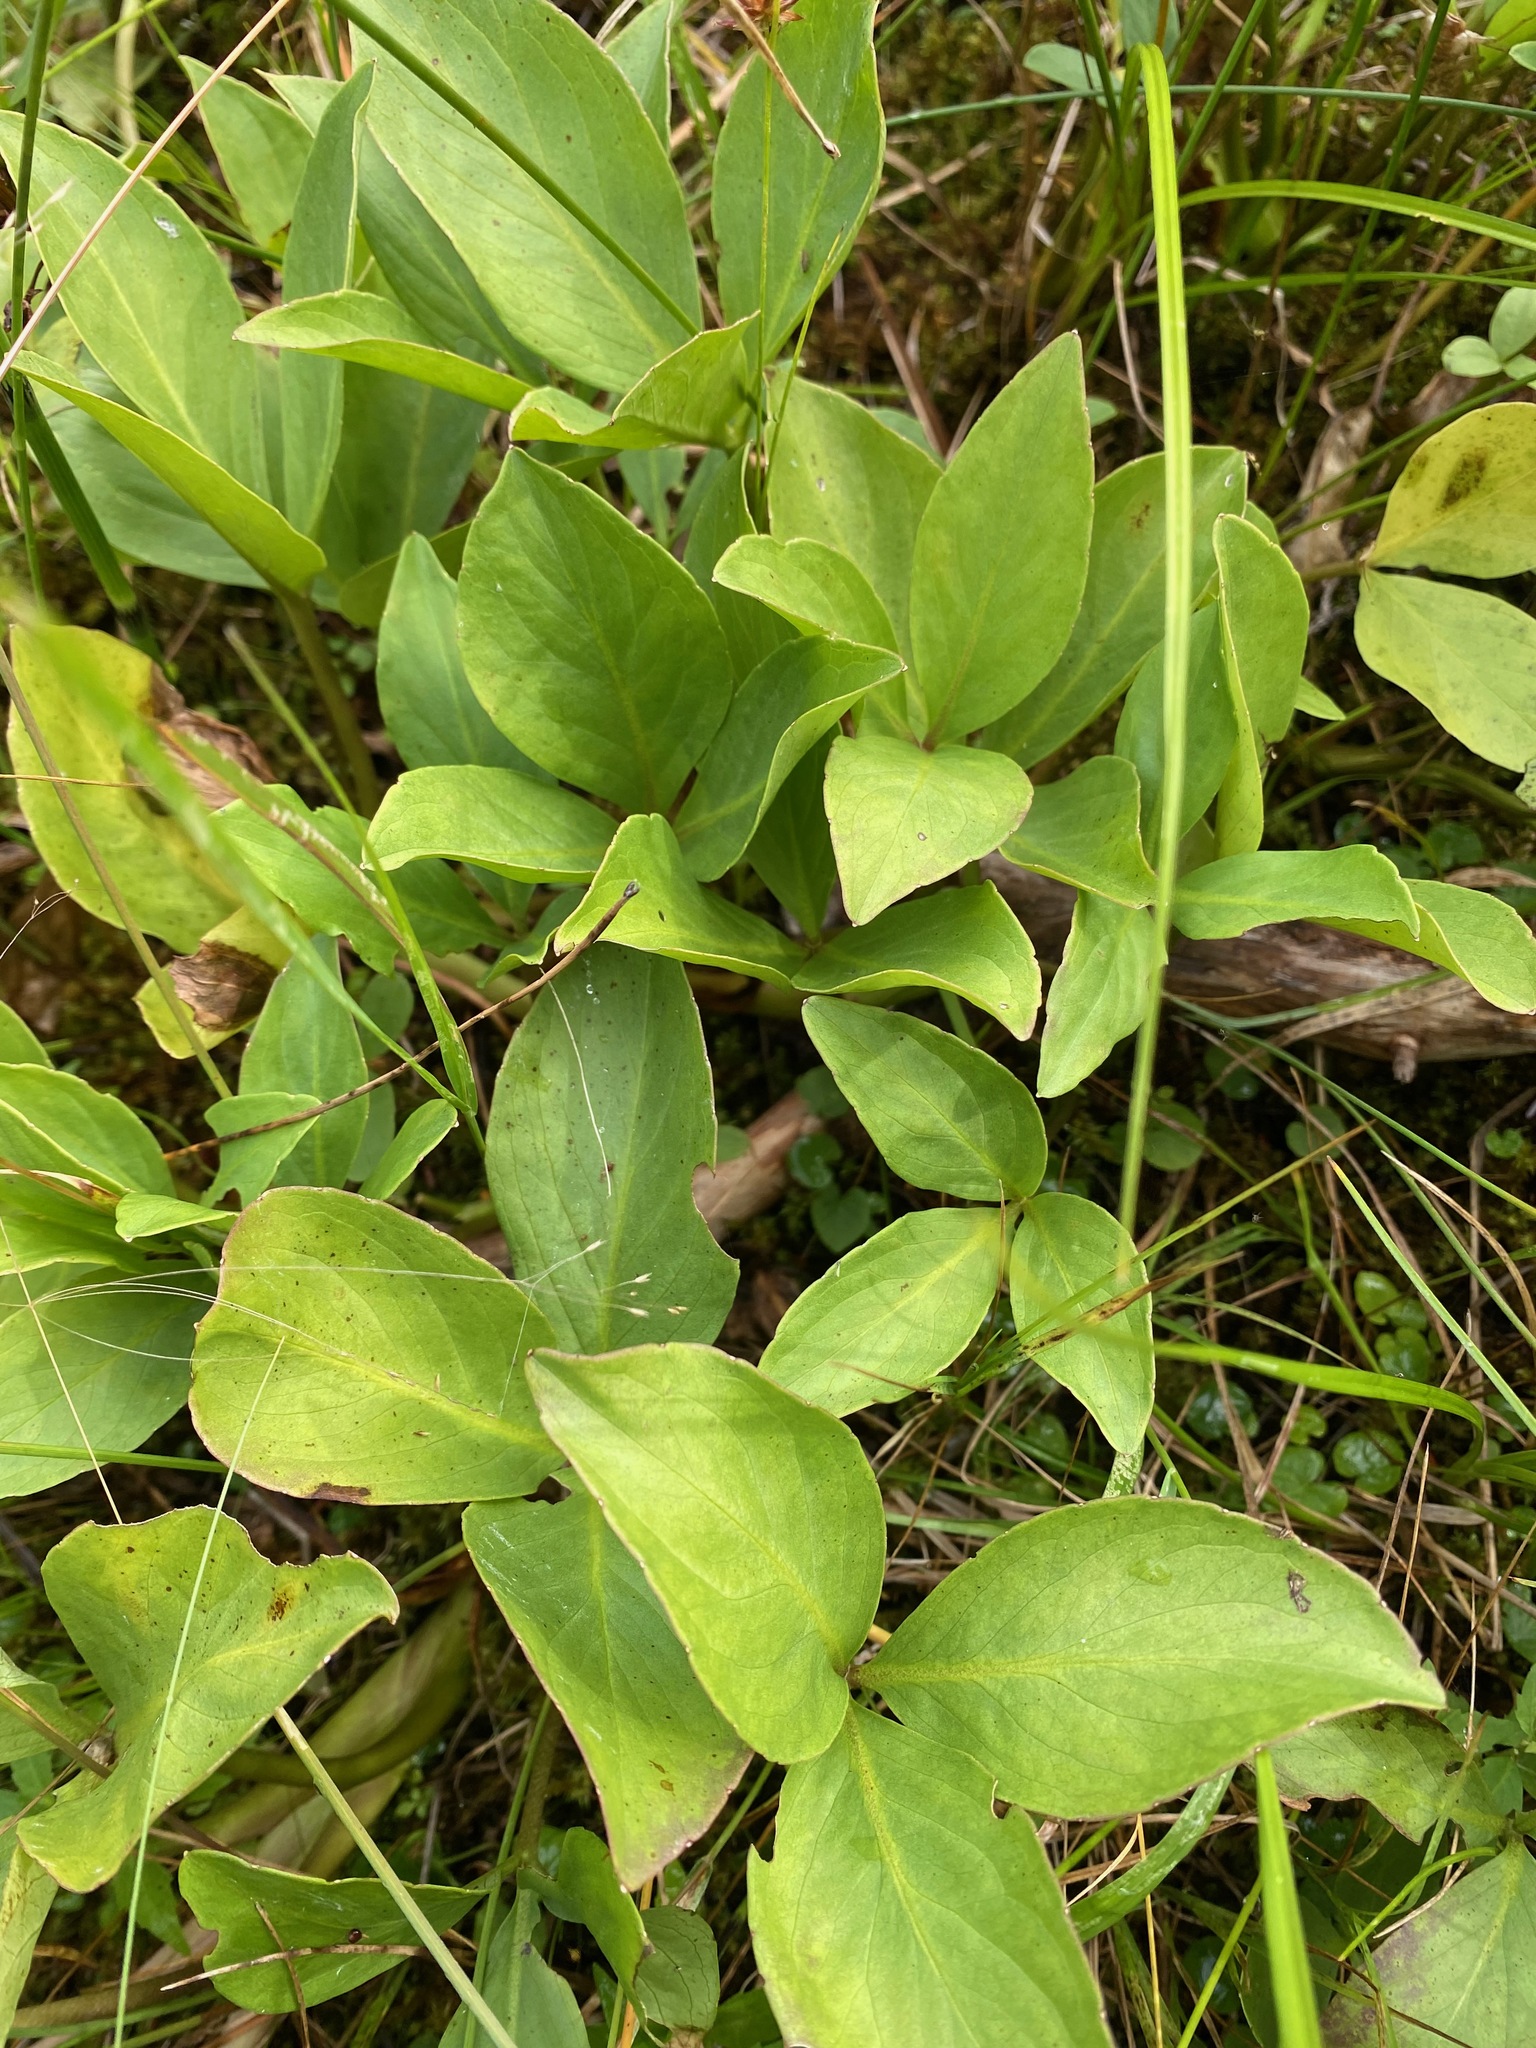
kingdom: Plantae
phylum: Tracheophyta
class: Magnoliopsida
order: Asterales
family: Menyanthaceae
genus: Menyanthes
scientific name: Menyanthes trifoliata
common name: Bogbean
